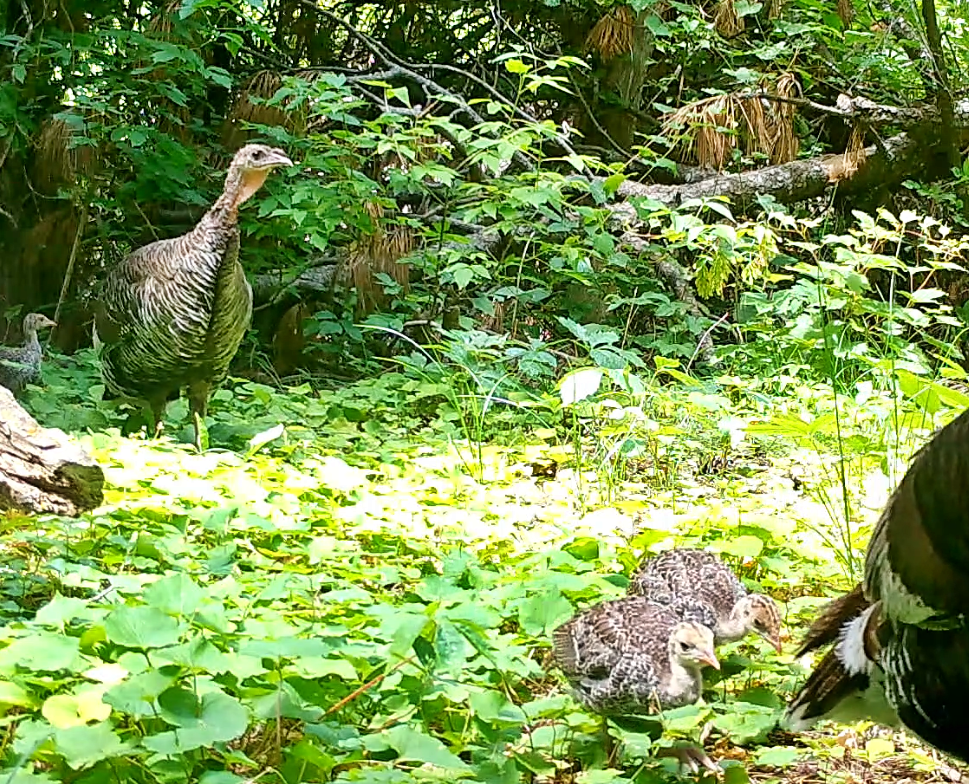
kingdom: Animalia
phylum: Chordata
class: Aves
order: Galliformes
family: Phasianidae
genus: Meleagris
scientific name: Meleagris gallopavo
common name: Wild turkey
